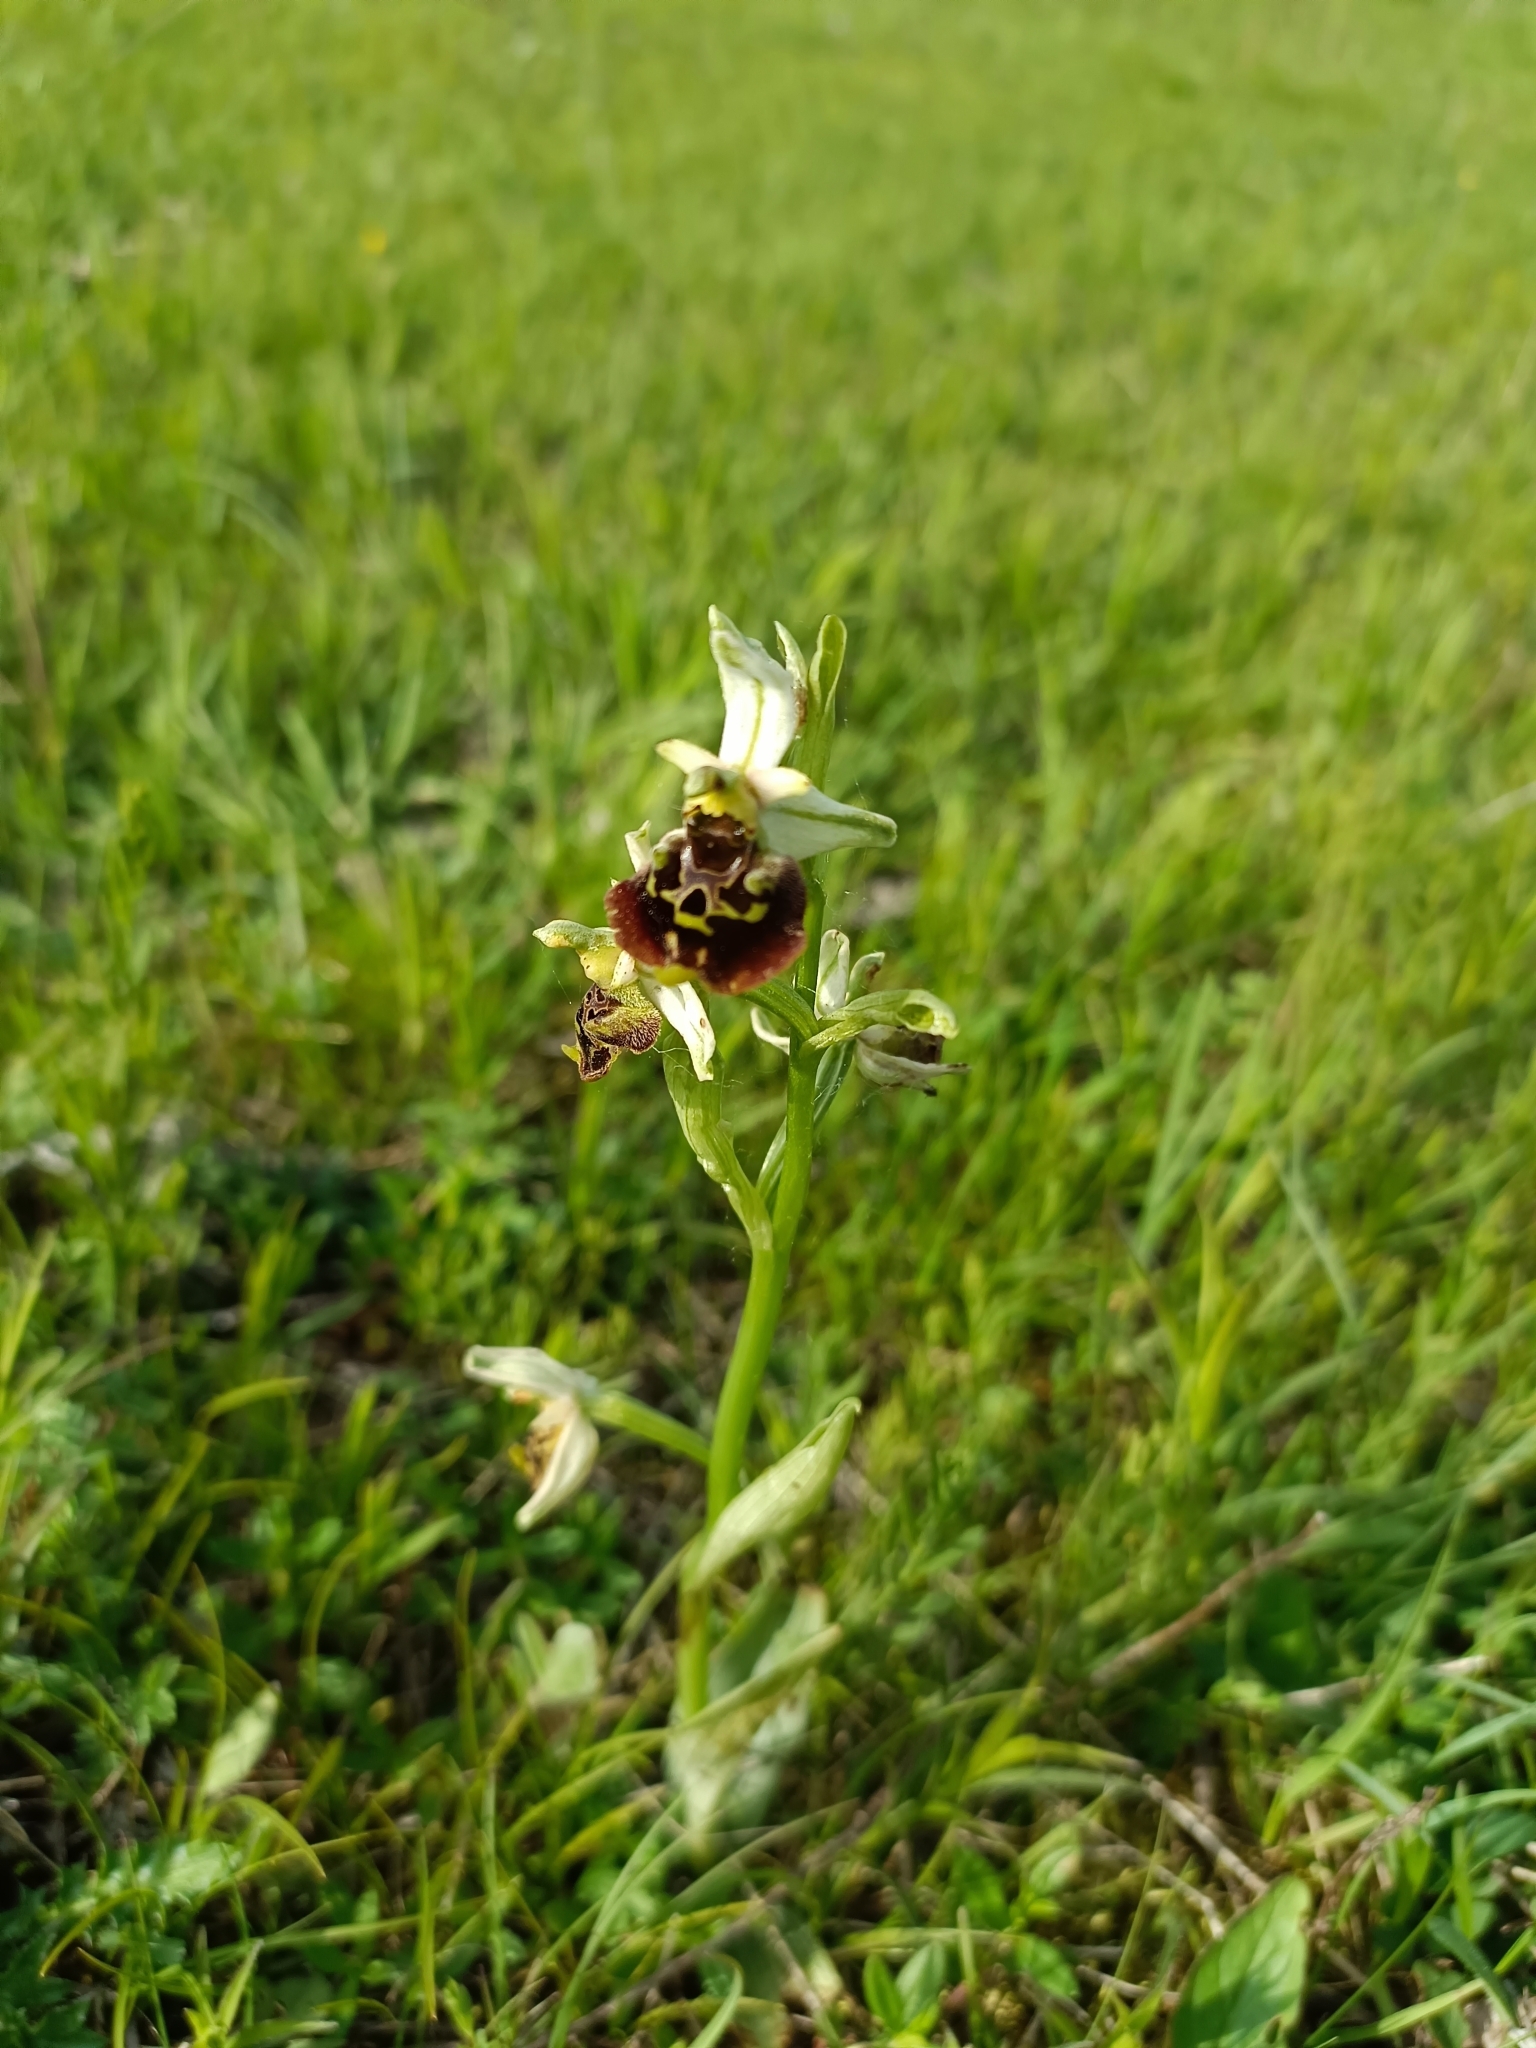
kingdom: Plantae
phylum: Tracheophyta
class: Liliopsida
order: Asparagales
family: Orchidaceae
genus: Ophrys
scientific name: Ophrys holosericea
